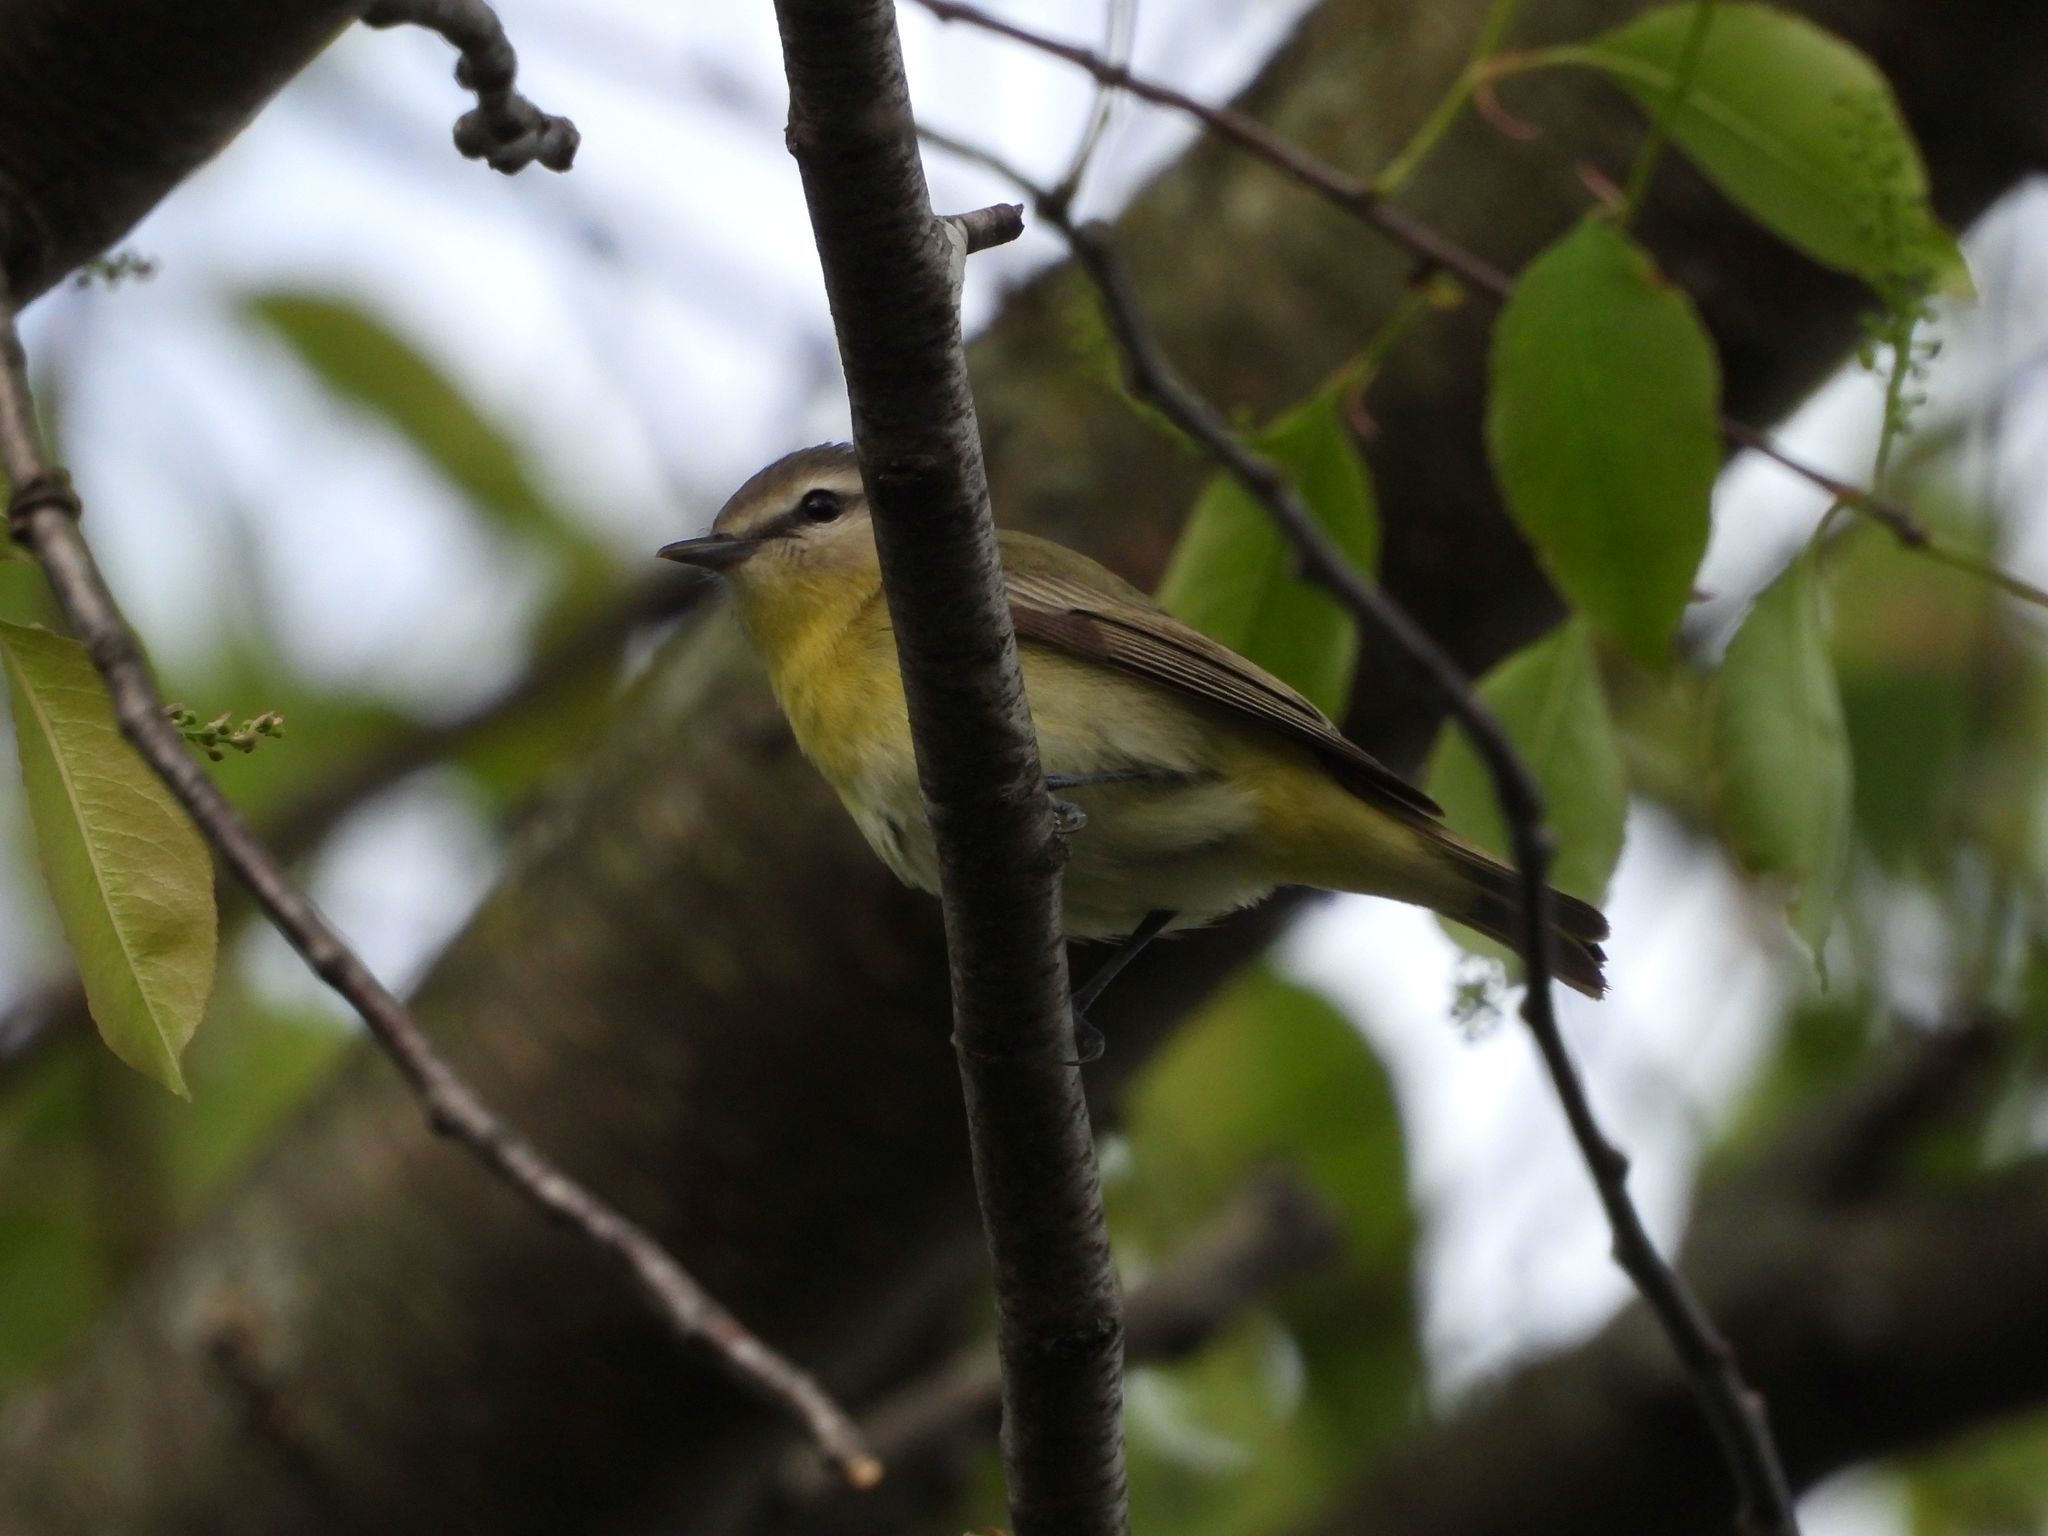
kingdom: Animalia
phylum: Chordata
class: Aves
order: Passeriformes
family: Vireonidae
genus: Vireo
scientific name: Vireo philadelphicus
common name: Philadelphia vireo
